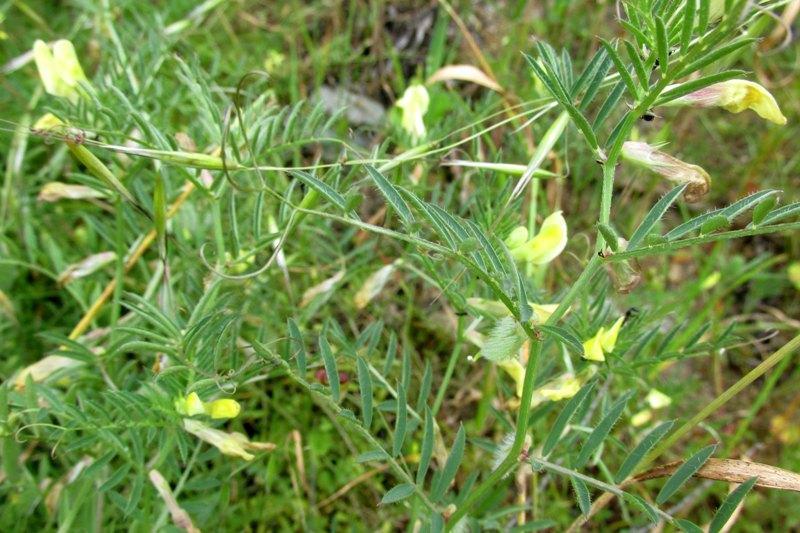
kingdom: Plantae
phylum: Tracheophyta
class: Magnoliopsida
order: Fabales
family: Fabaceae
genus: Vicia
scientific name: Vicia lutea
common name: Smooth yellow vetch
